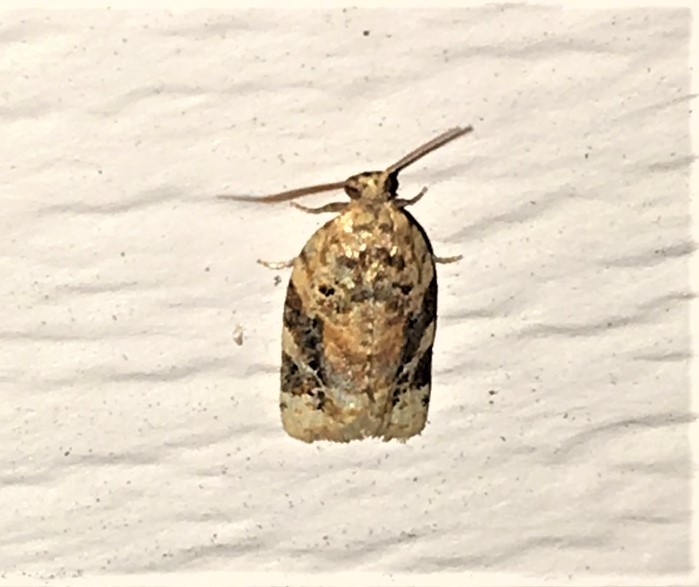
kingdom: Animalia
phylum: Arthropoda
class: Insecta
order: Lepidoptera
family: Tortricidae
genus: Argyrotaenia
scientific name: Argyrotaenia velutinana
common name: Red-banded leafroller moth
